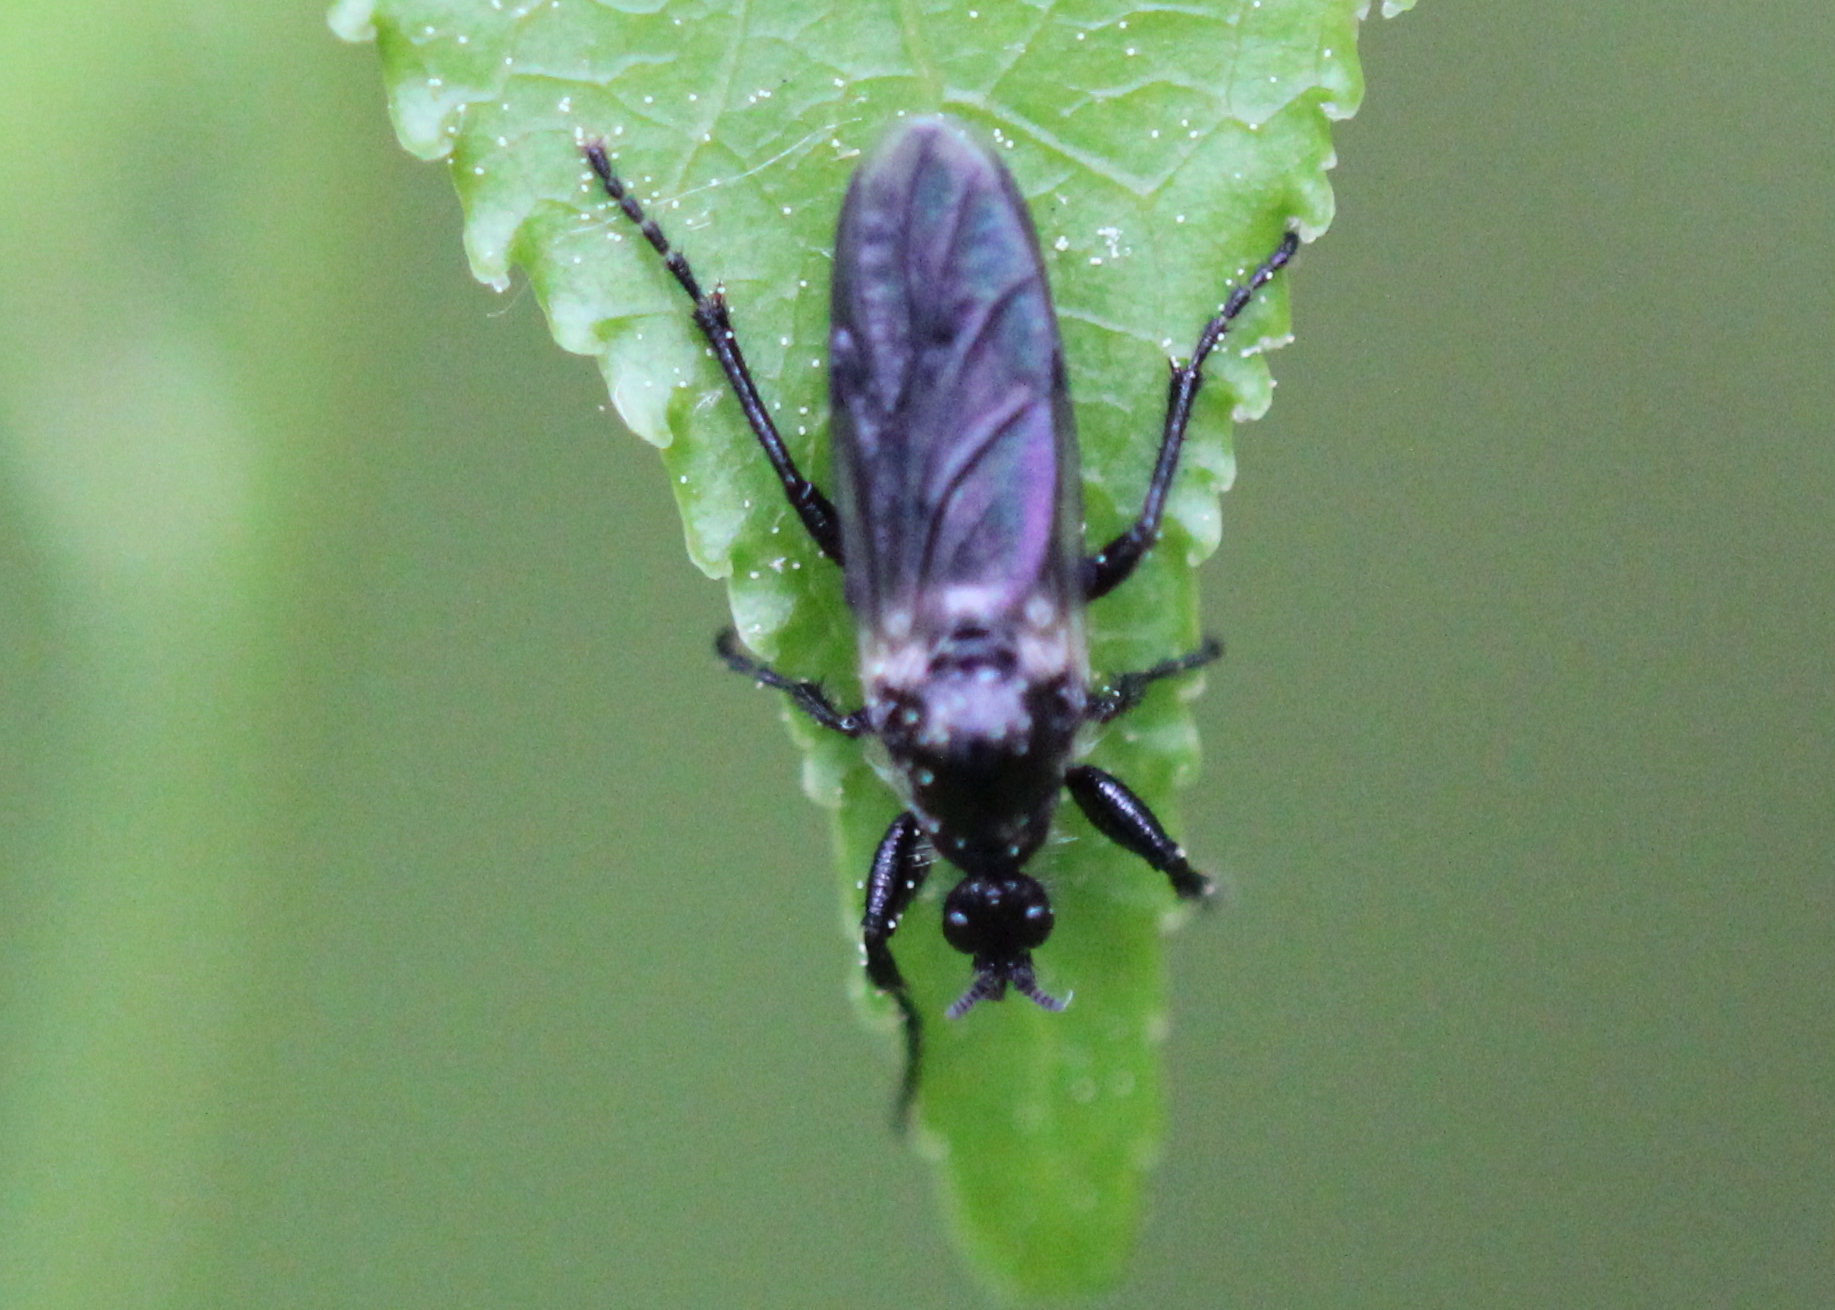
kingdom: Animalia
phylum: Arthropoda
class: Insecta
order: Diptera
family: Bibionidae
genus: Bibio
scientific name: Bibio albipennis
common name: White-winged march fly
